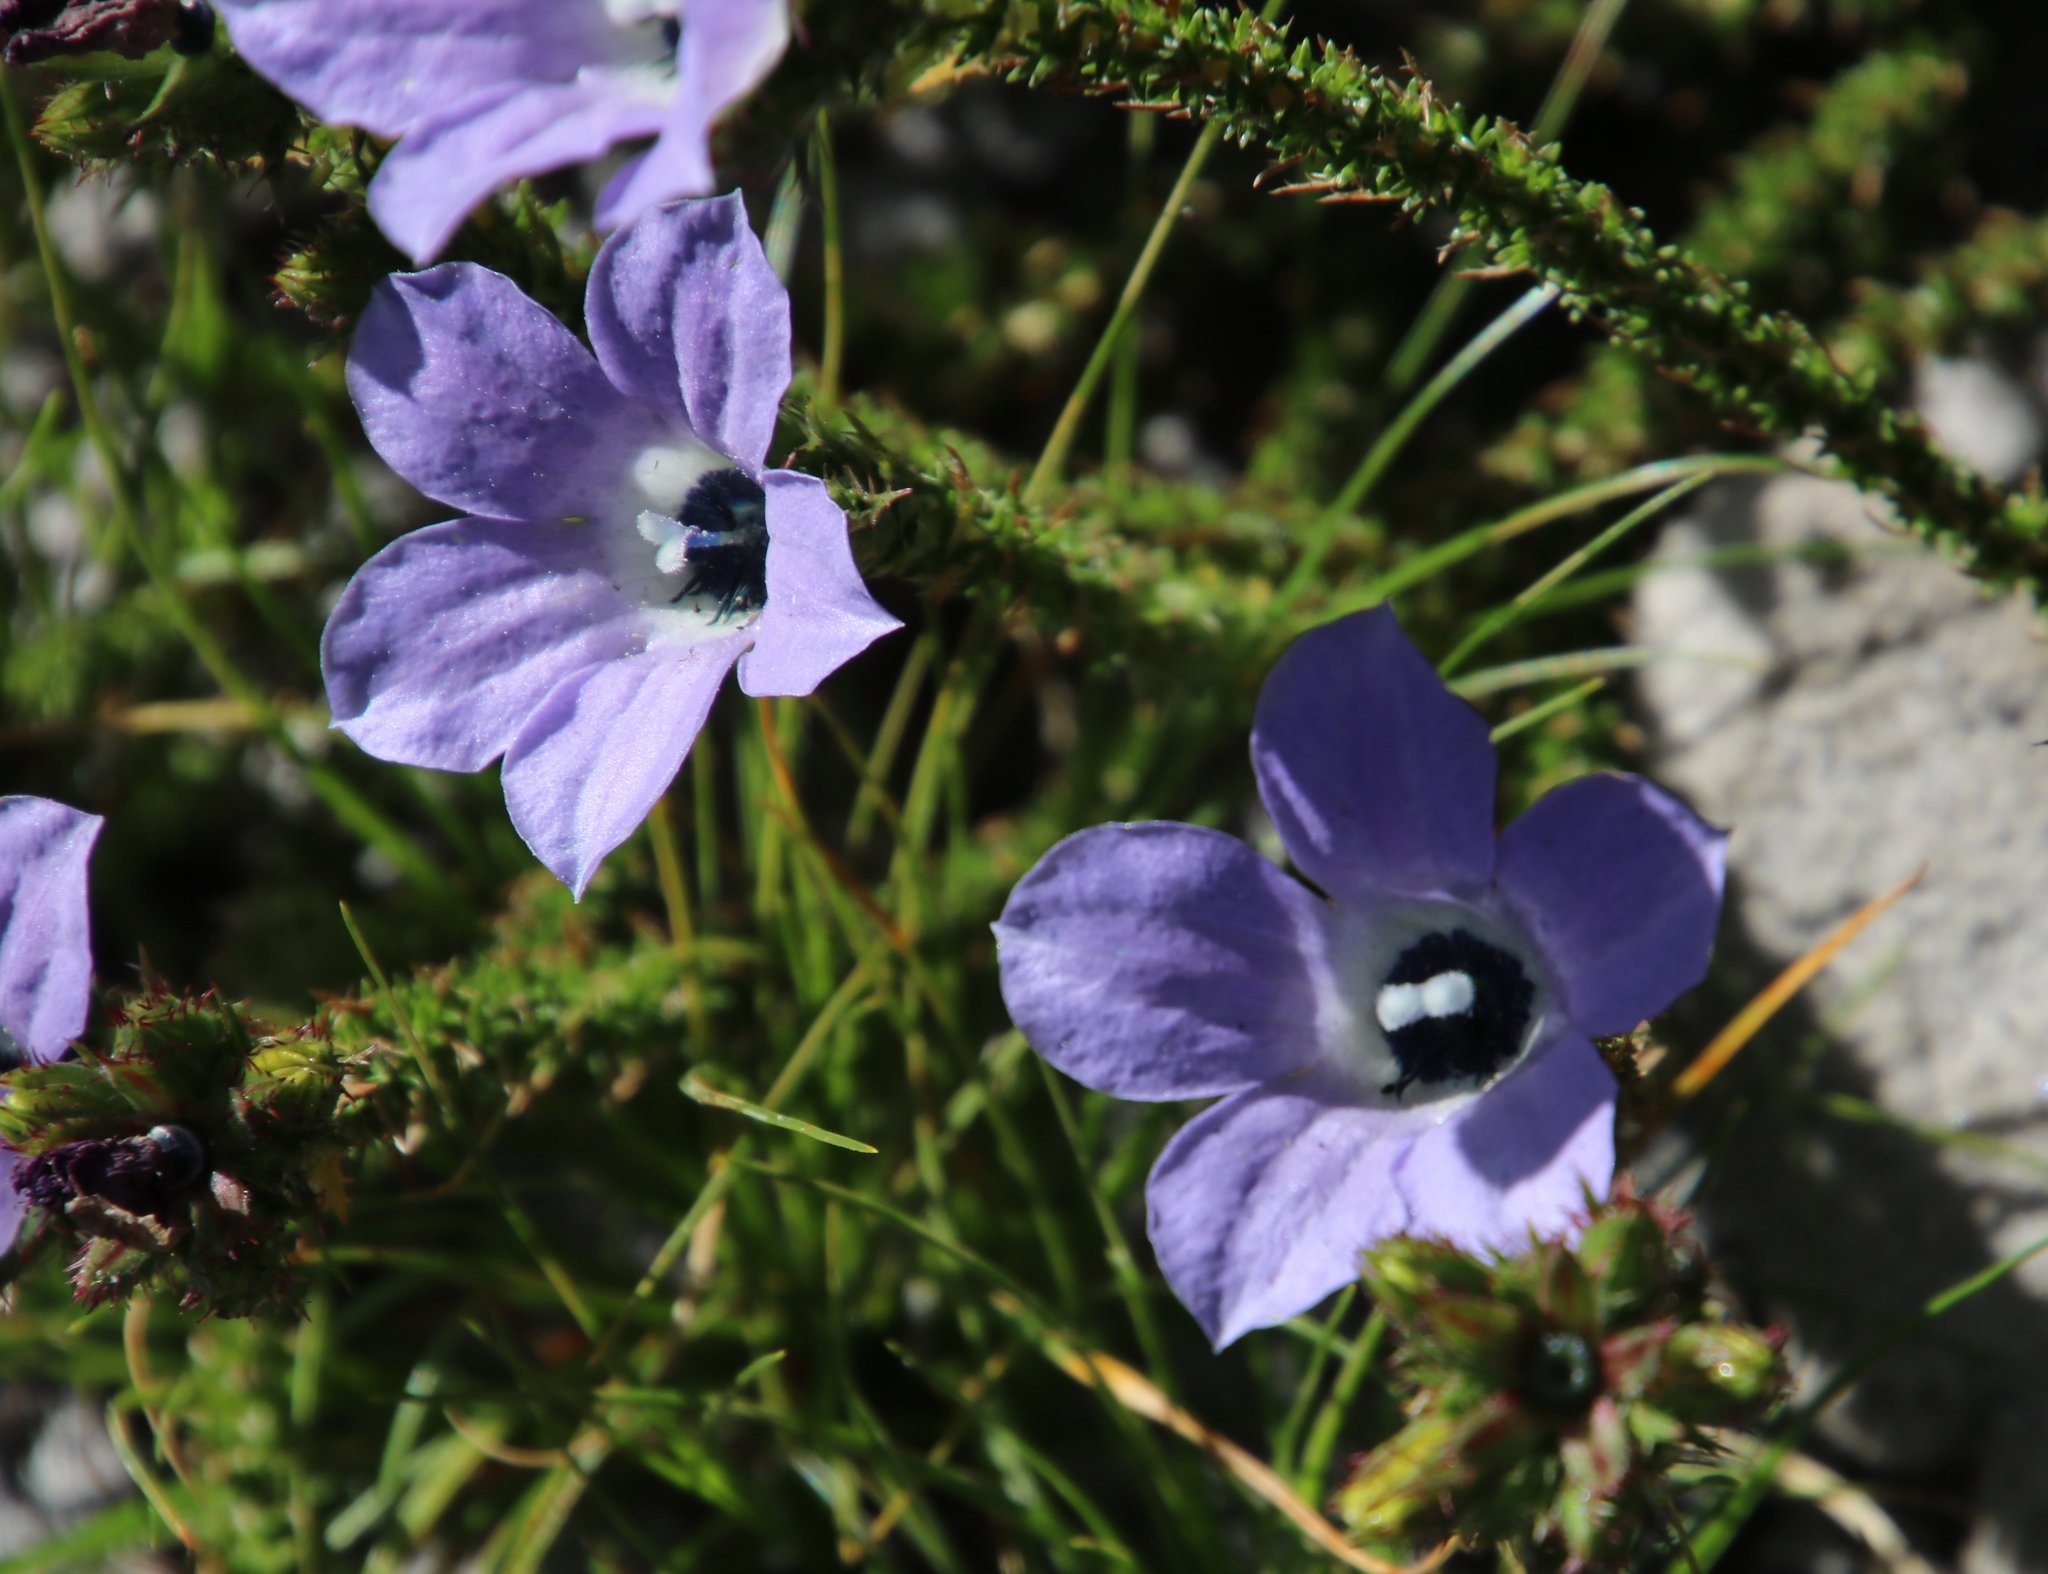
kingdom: Plantae
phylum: Tracheophyta
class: Magnoliopsida
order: Asterales
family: Campanulaceae
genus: Roella
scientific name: Roella triflora
